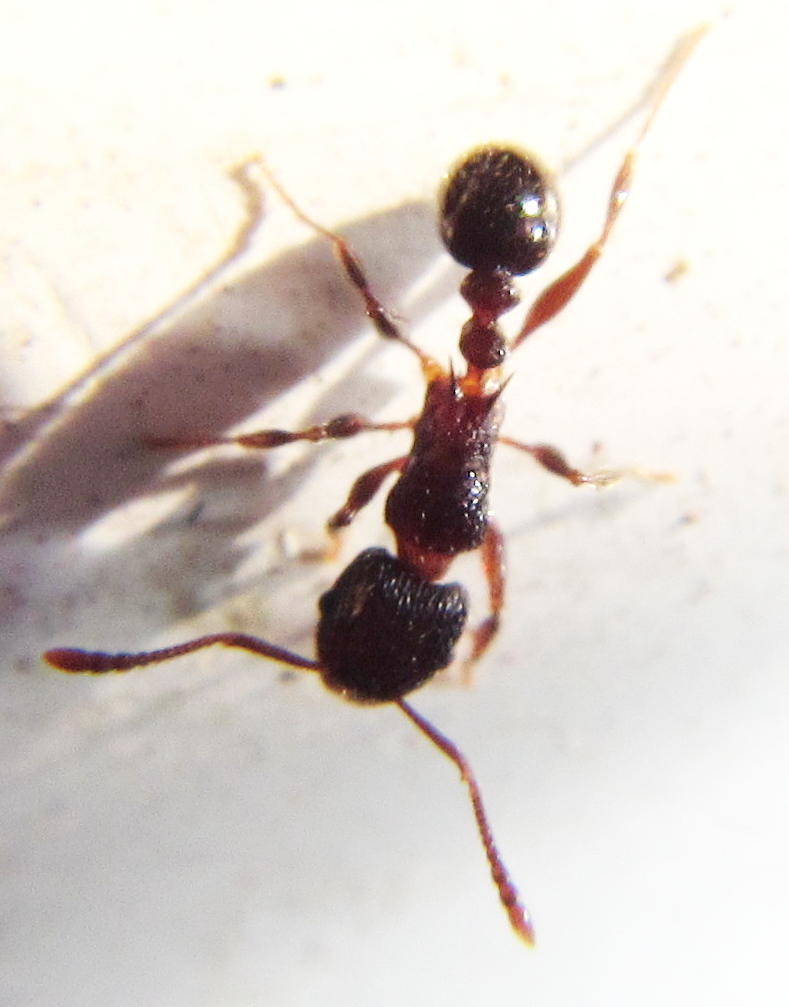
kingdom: Animalia
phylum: Arthropoda
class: Insecta
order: Hymenoptera
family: Formicidae
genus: Tetramorium
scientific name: Tetramorium grassii
